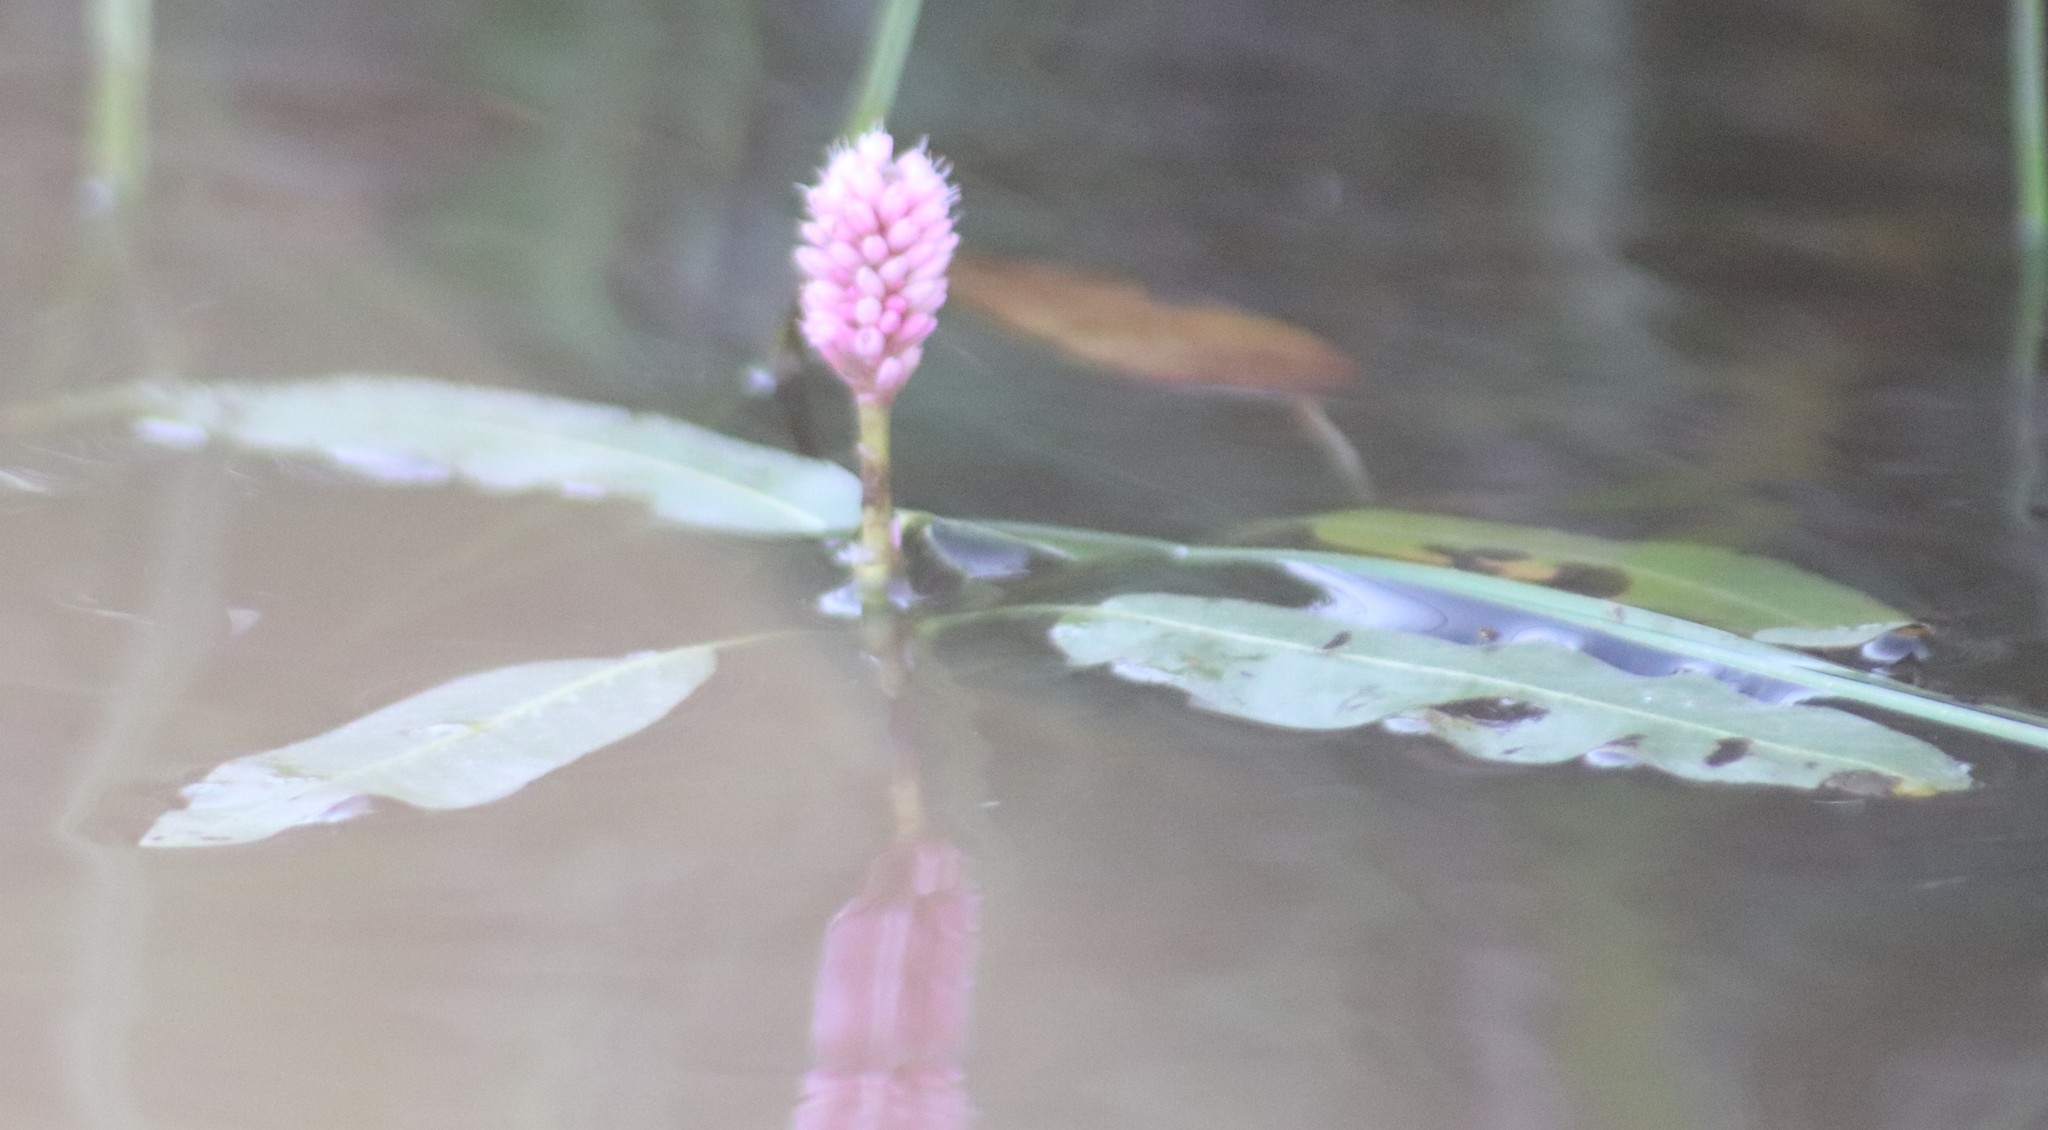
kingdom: Plantae
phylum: Tracheophyta
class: Magnoliopsida
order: Caryophyllales
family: Polygonaceae
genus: Persicaria
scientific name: Persicaria amphibia
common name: Amphibious bistort
